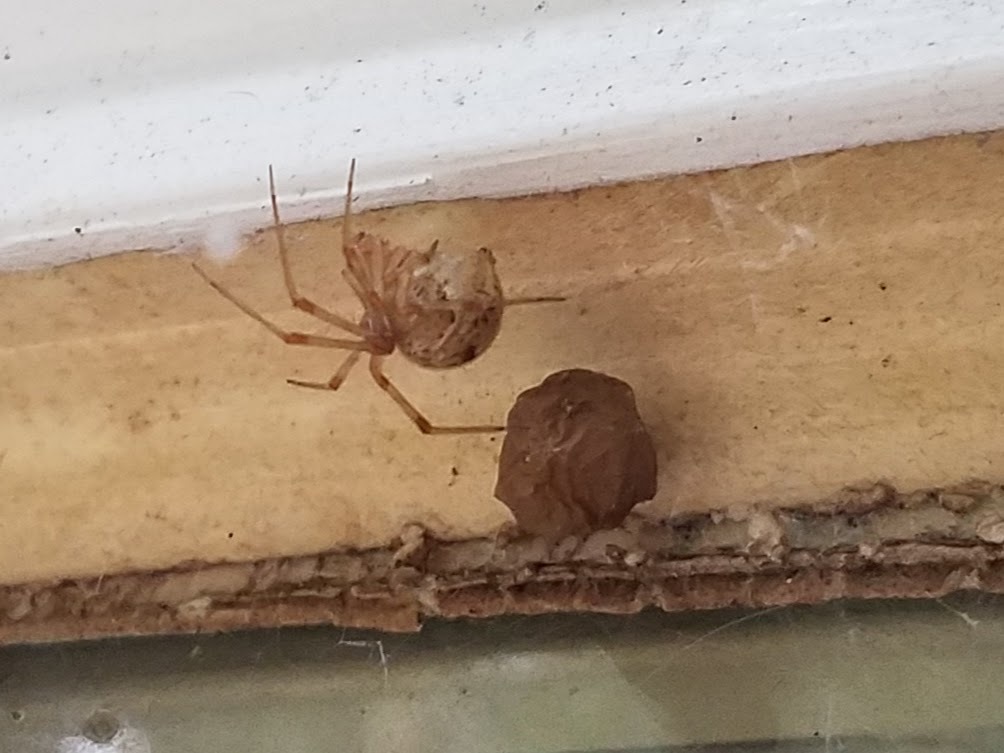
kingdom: Animalia
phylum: Arthropoda
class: Arachnida
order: Araneae
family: Theridiidae
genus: Parasteatoda
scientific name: Parasteatoda tepidariorum
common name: Common house spider
